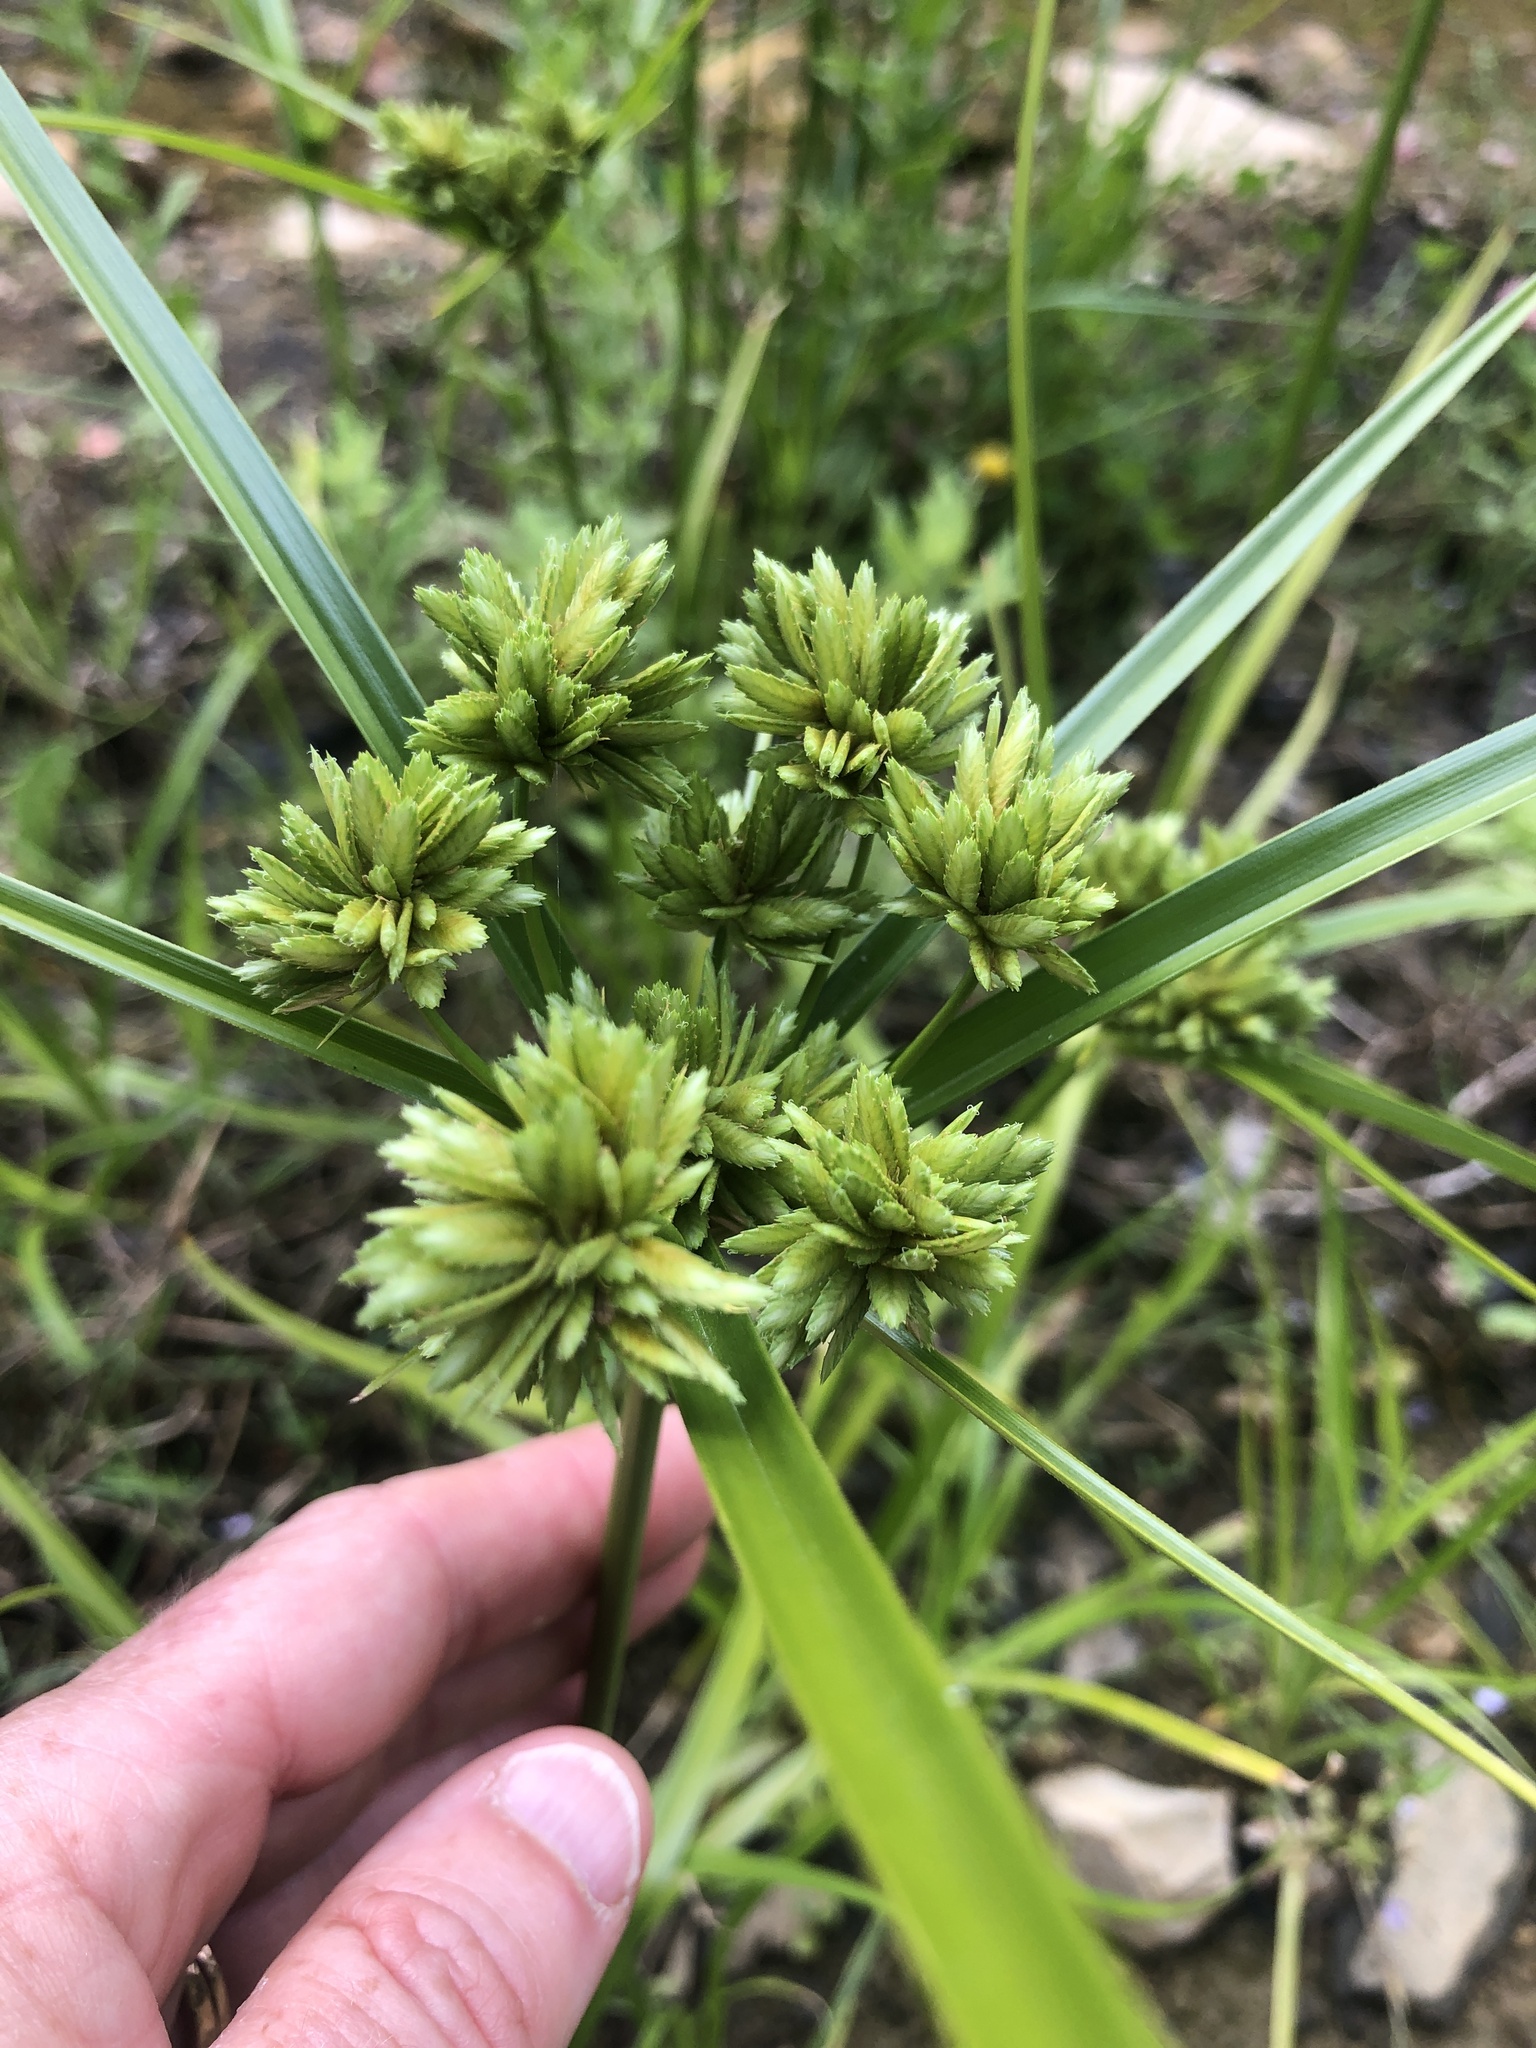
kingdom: Plantae
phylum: Tracheophyta
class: Liliopsida
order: Poales
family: Cyperaceae
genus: Cyperus
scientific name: Cyperus eragrostis
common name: Tall flatsedge
